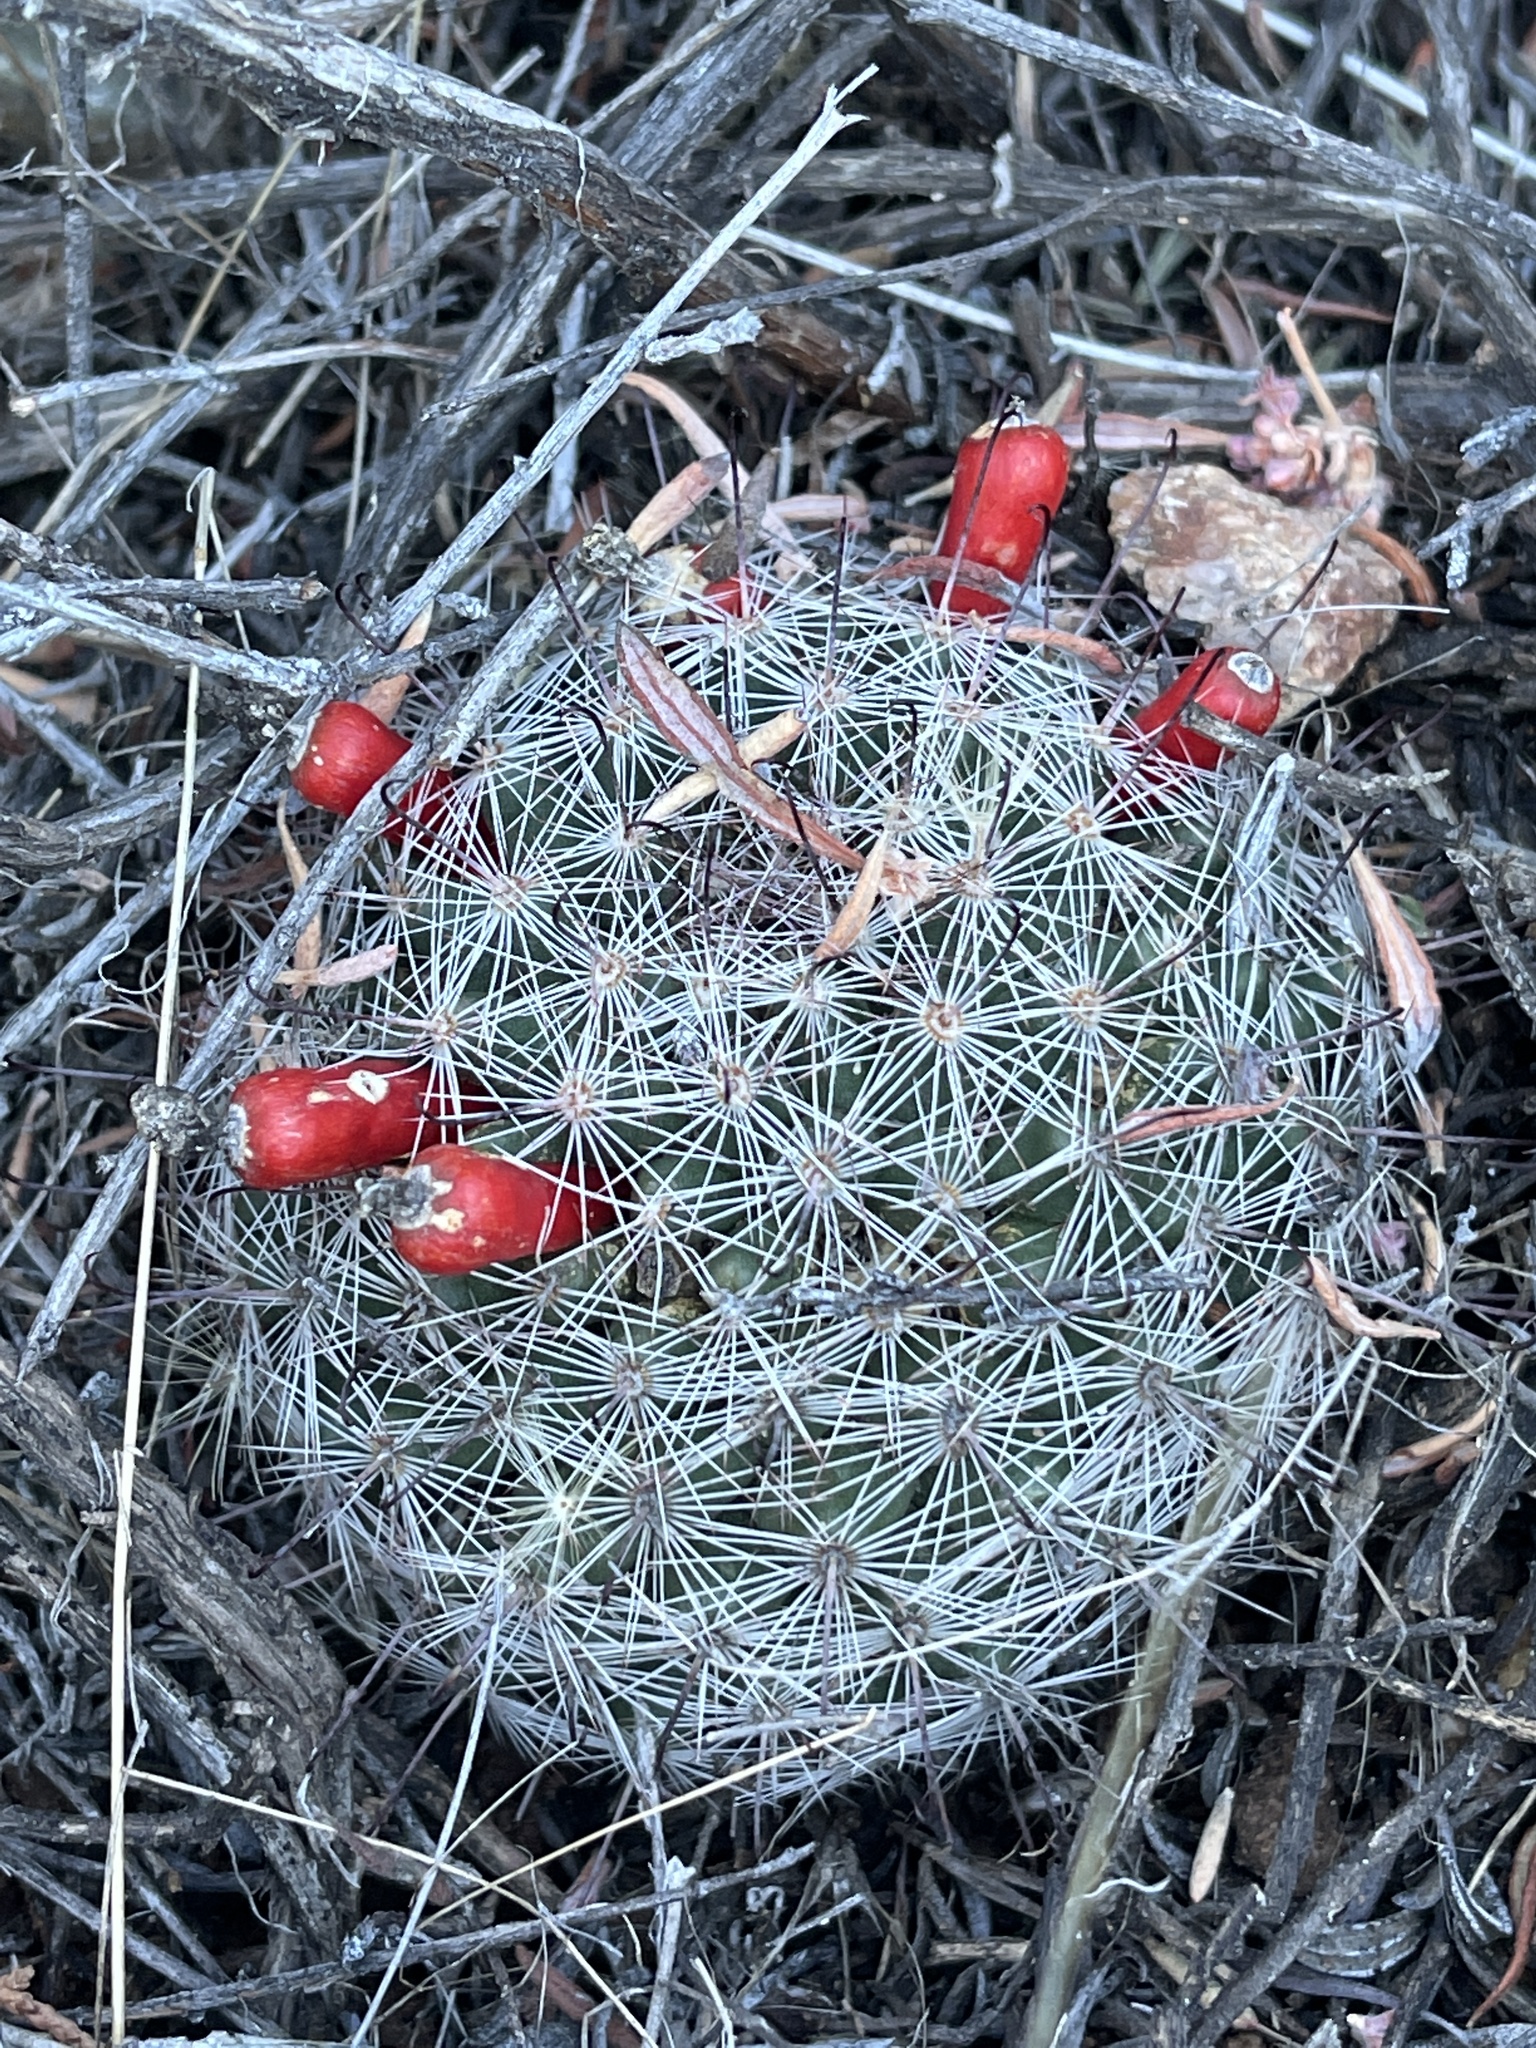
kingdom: Plantae
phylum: Tracheophyta
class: Magnoliopsida
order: Caryophyllales
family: Cactaceae
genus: Cochemiea
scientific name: Cochemiea grahamii
